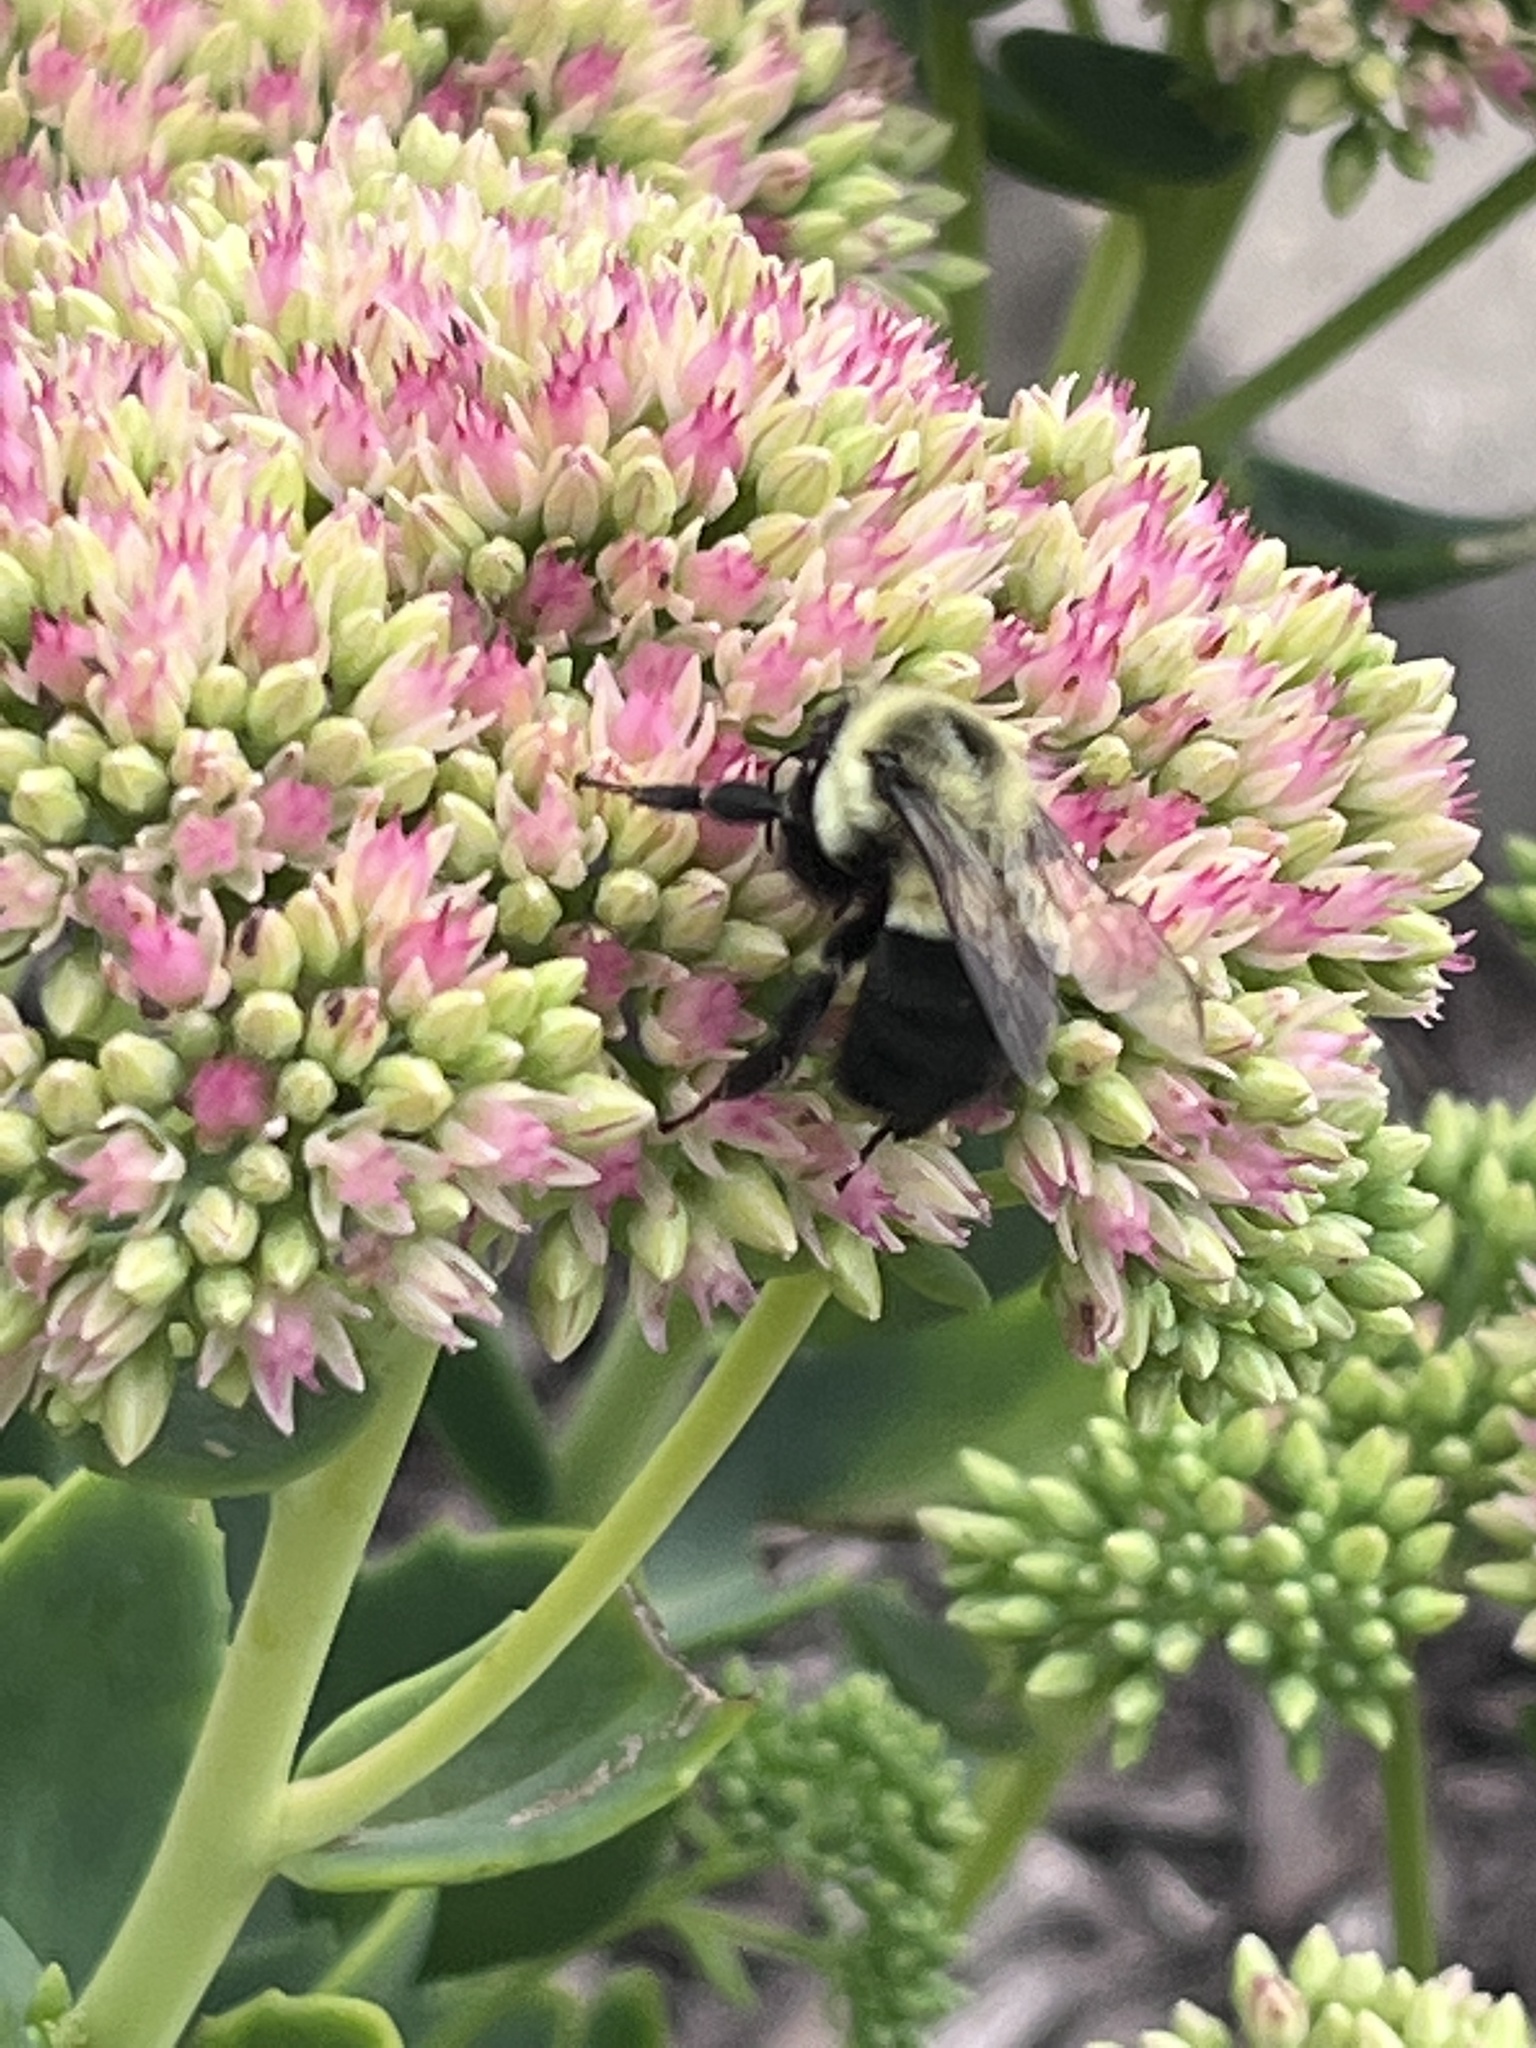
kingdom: Animalia
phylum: Arthropoda
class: Insecta
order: Hymenoptera
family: Apidae
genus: Bombus
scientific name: Bombus impatiens
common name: Common eastern bumble bee
